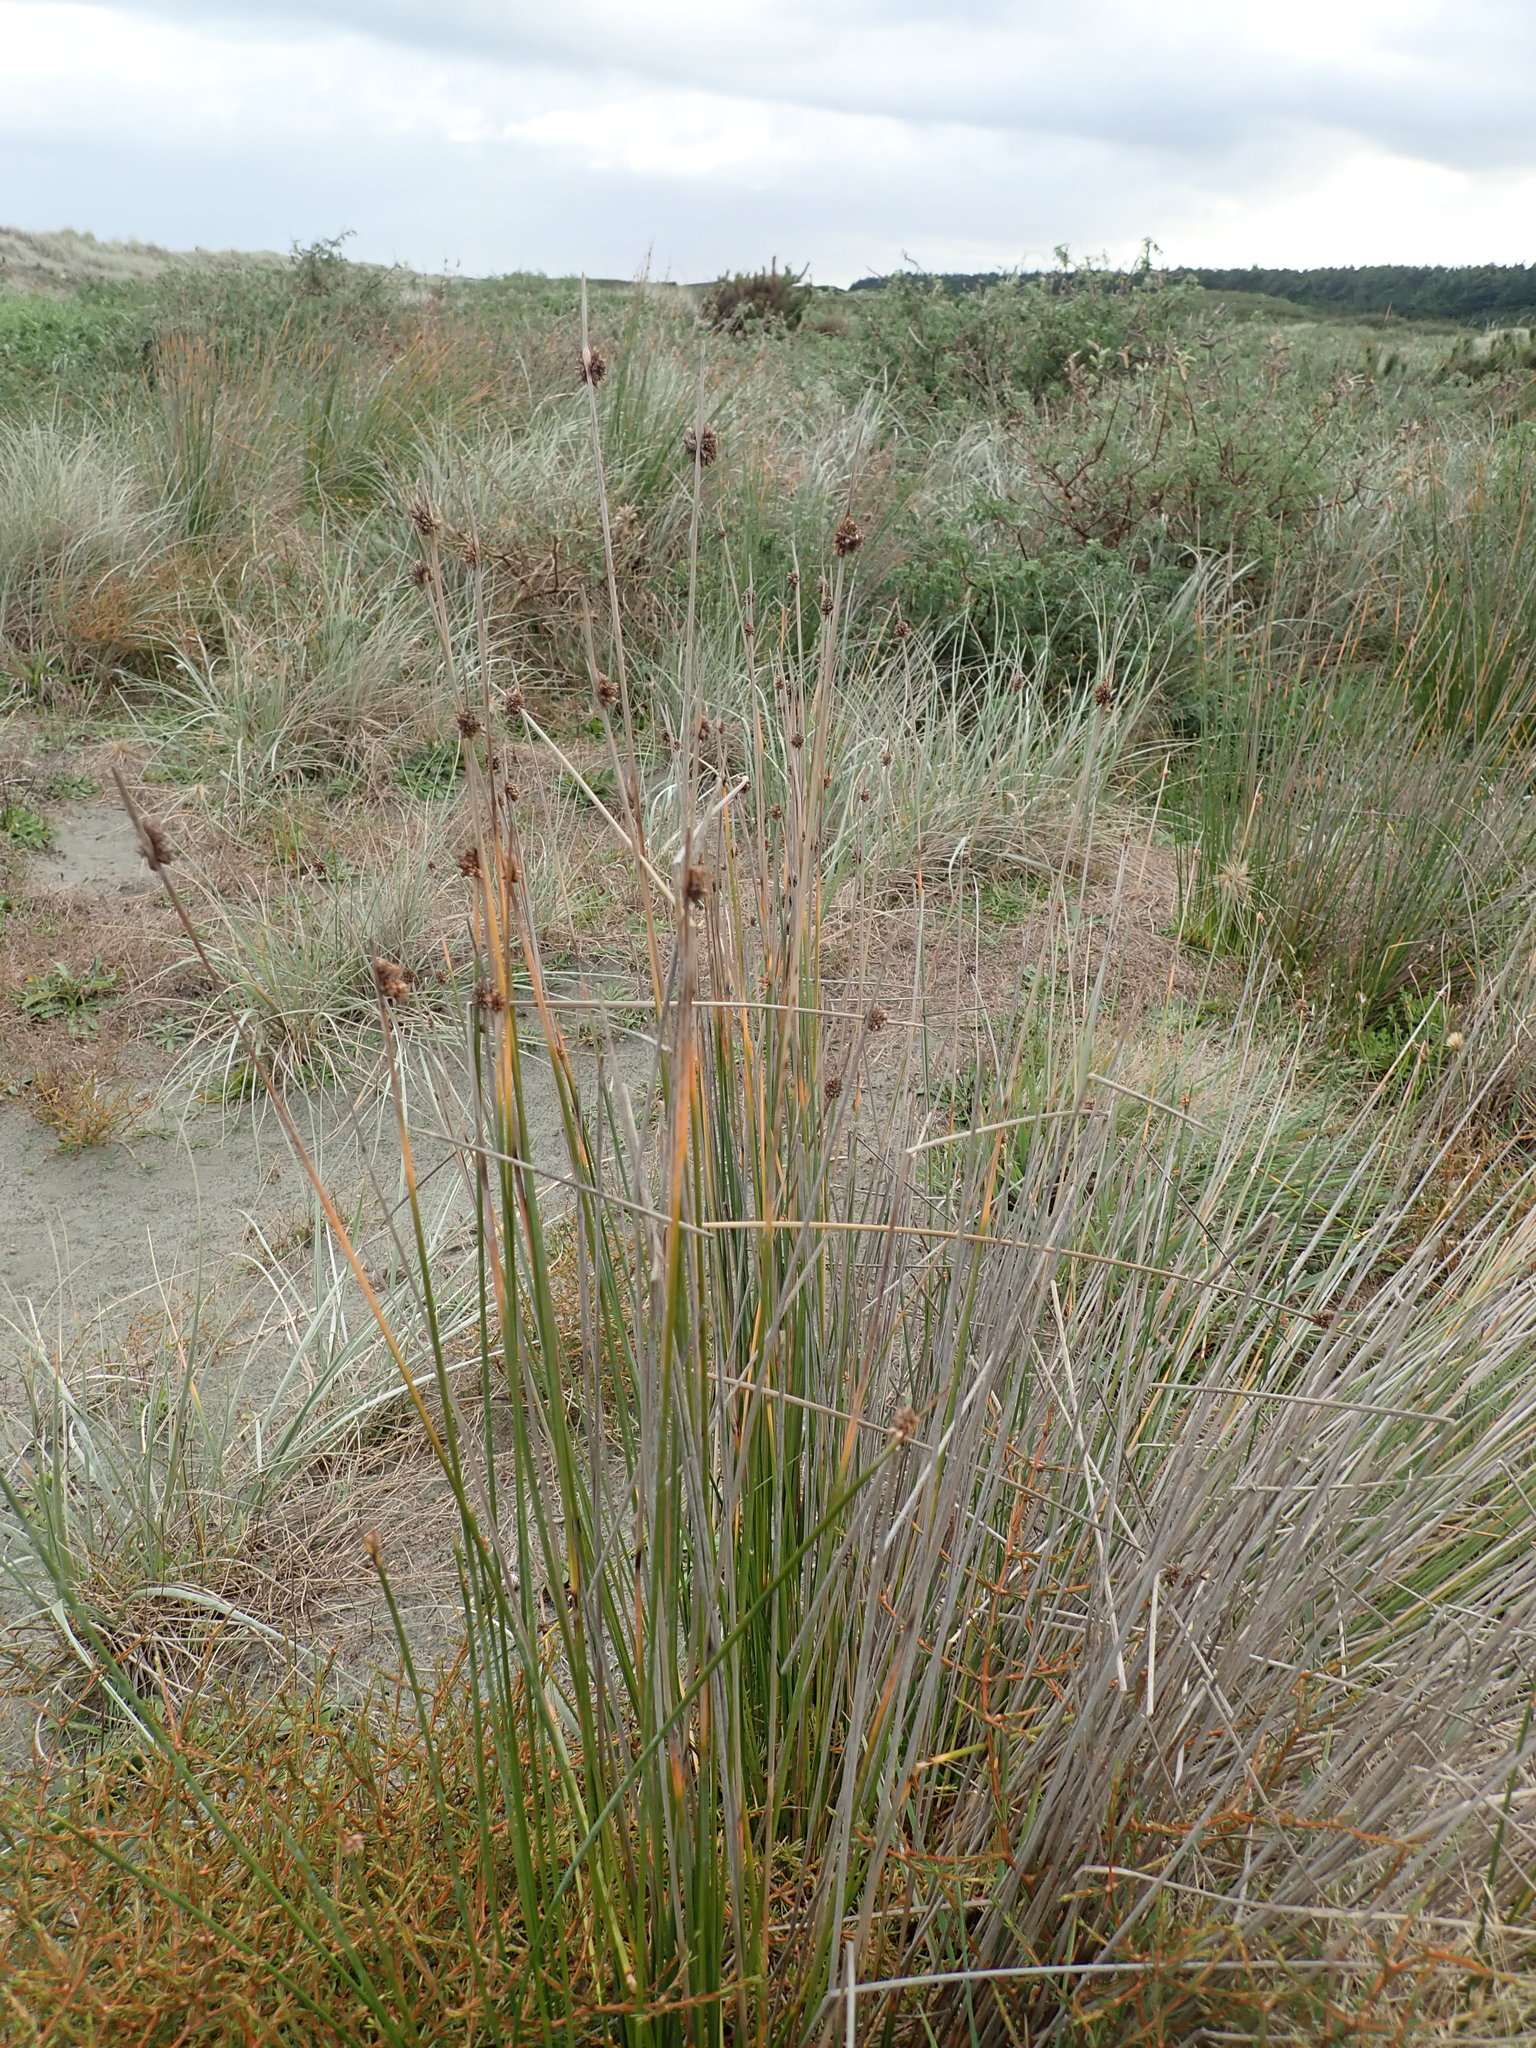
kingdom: Plantae
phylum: Tracheophyta
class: Liliopsida
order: Poales
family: Cyperaceae
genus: Ficinia
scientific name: Ficinia nodosa
